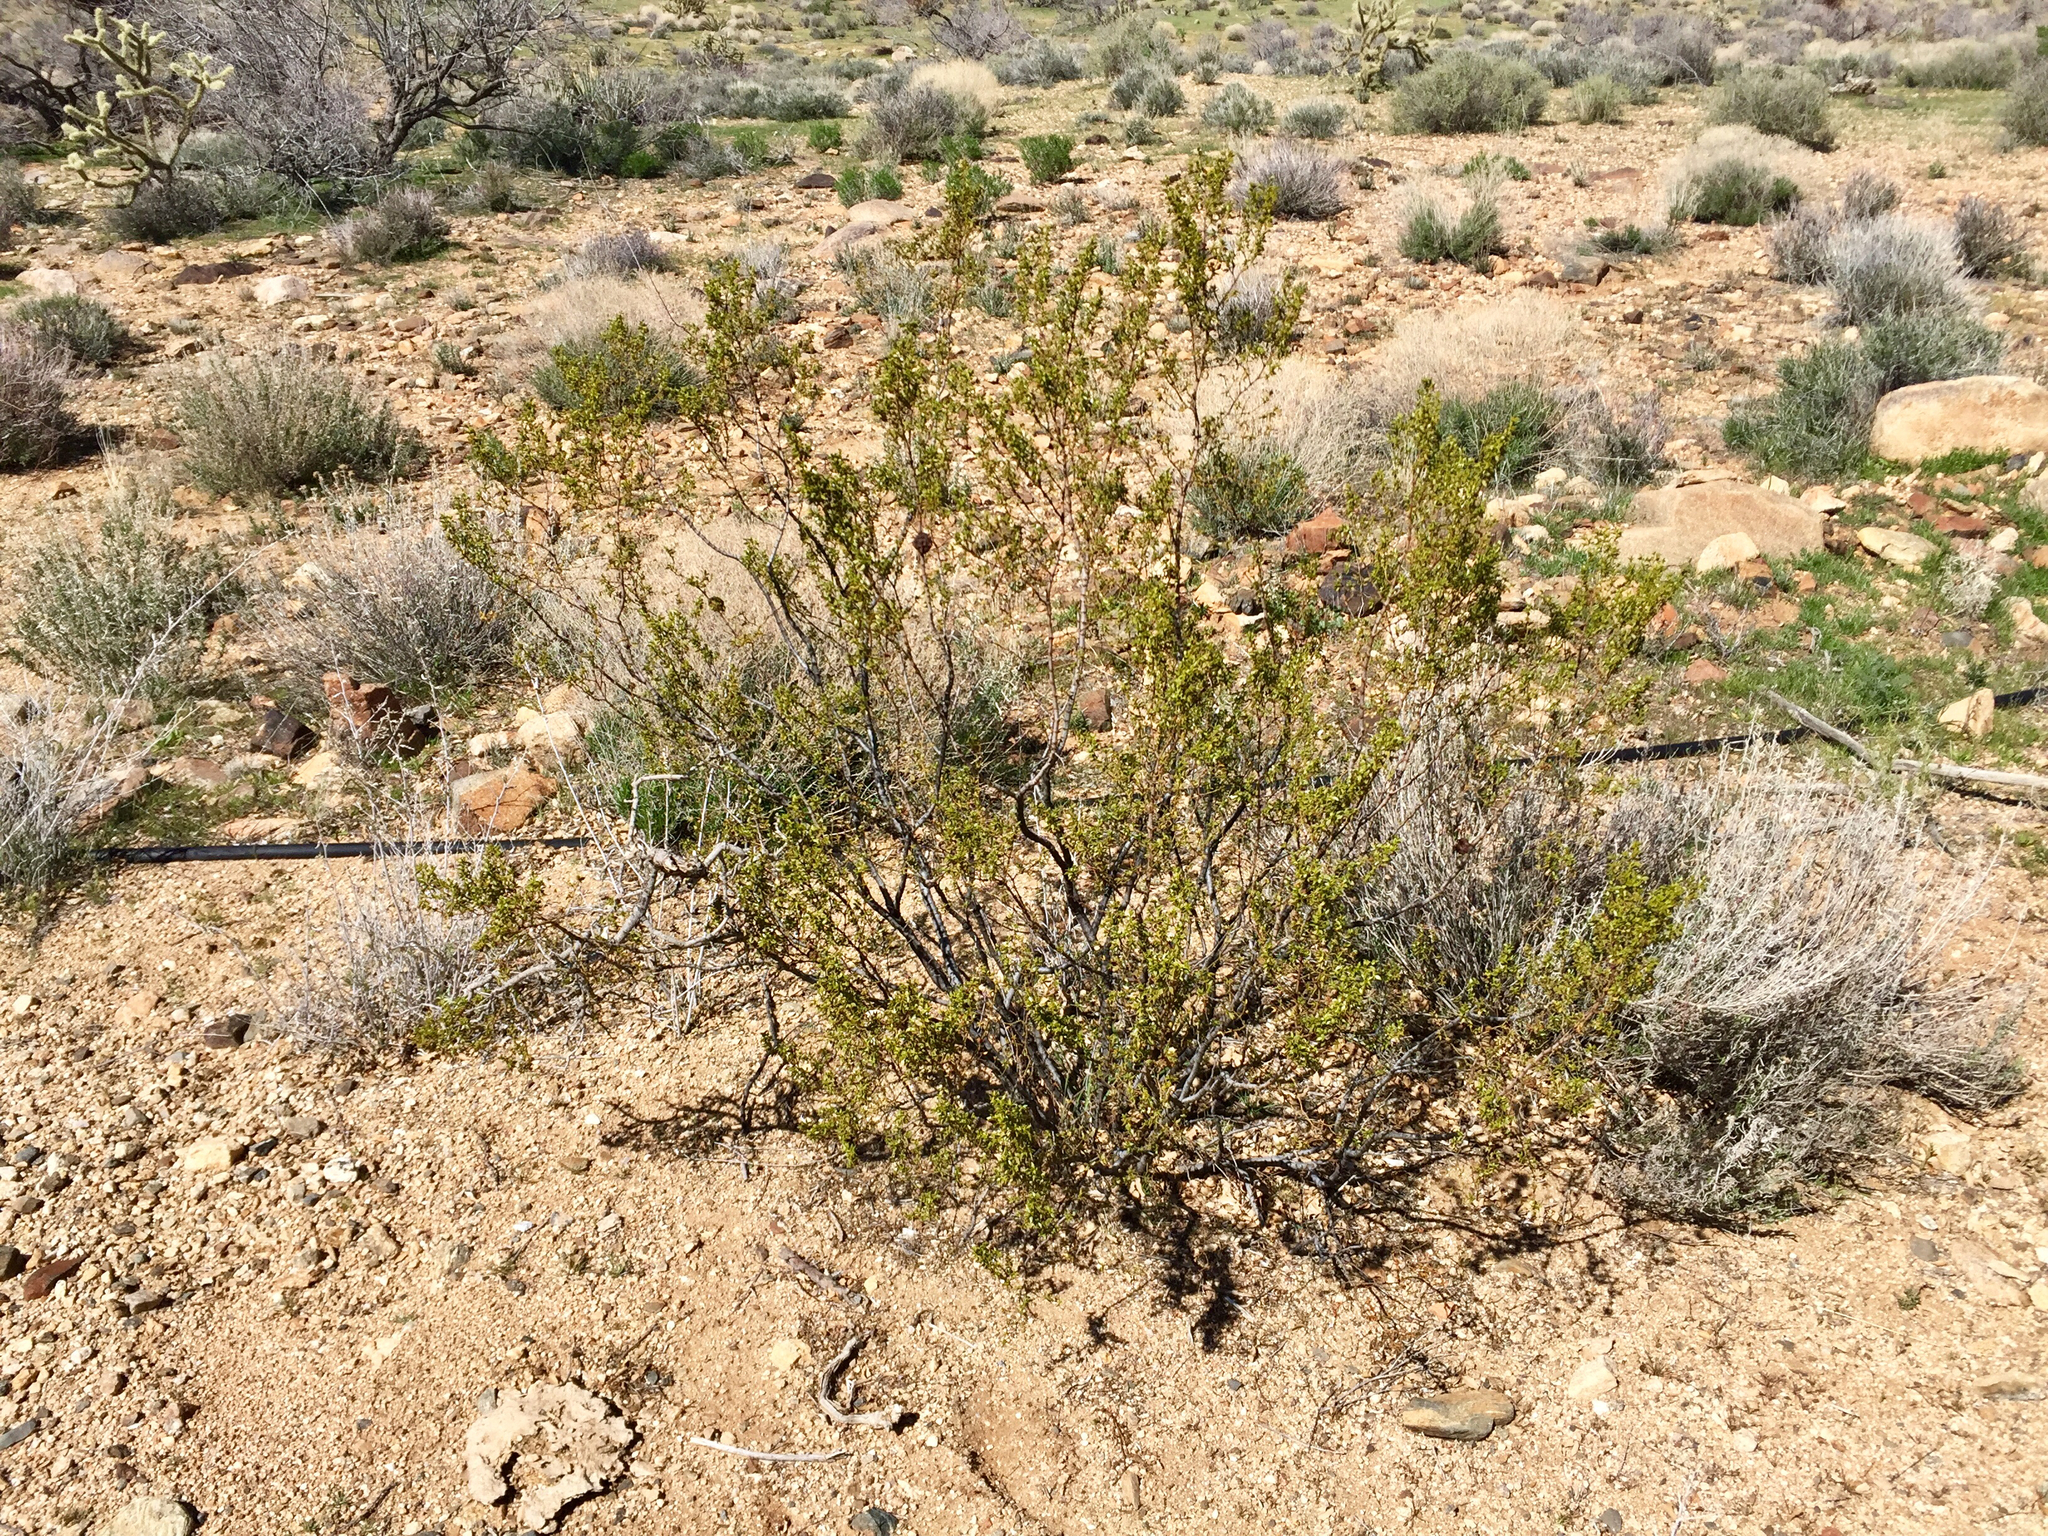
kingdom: Plantae
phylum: Tracheophyta
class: Magnoliopsida
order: Zygophyllales
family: Zygophyllaceae
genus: Larrea
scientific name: Larrea tridentata
